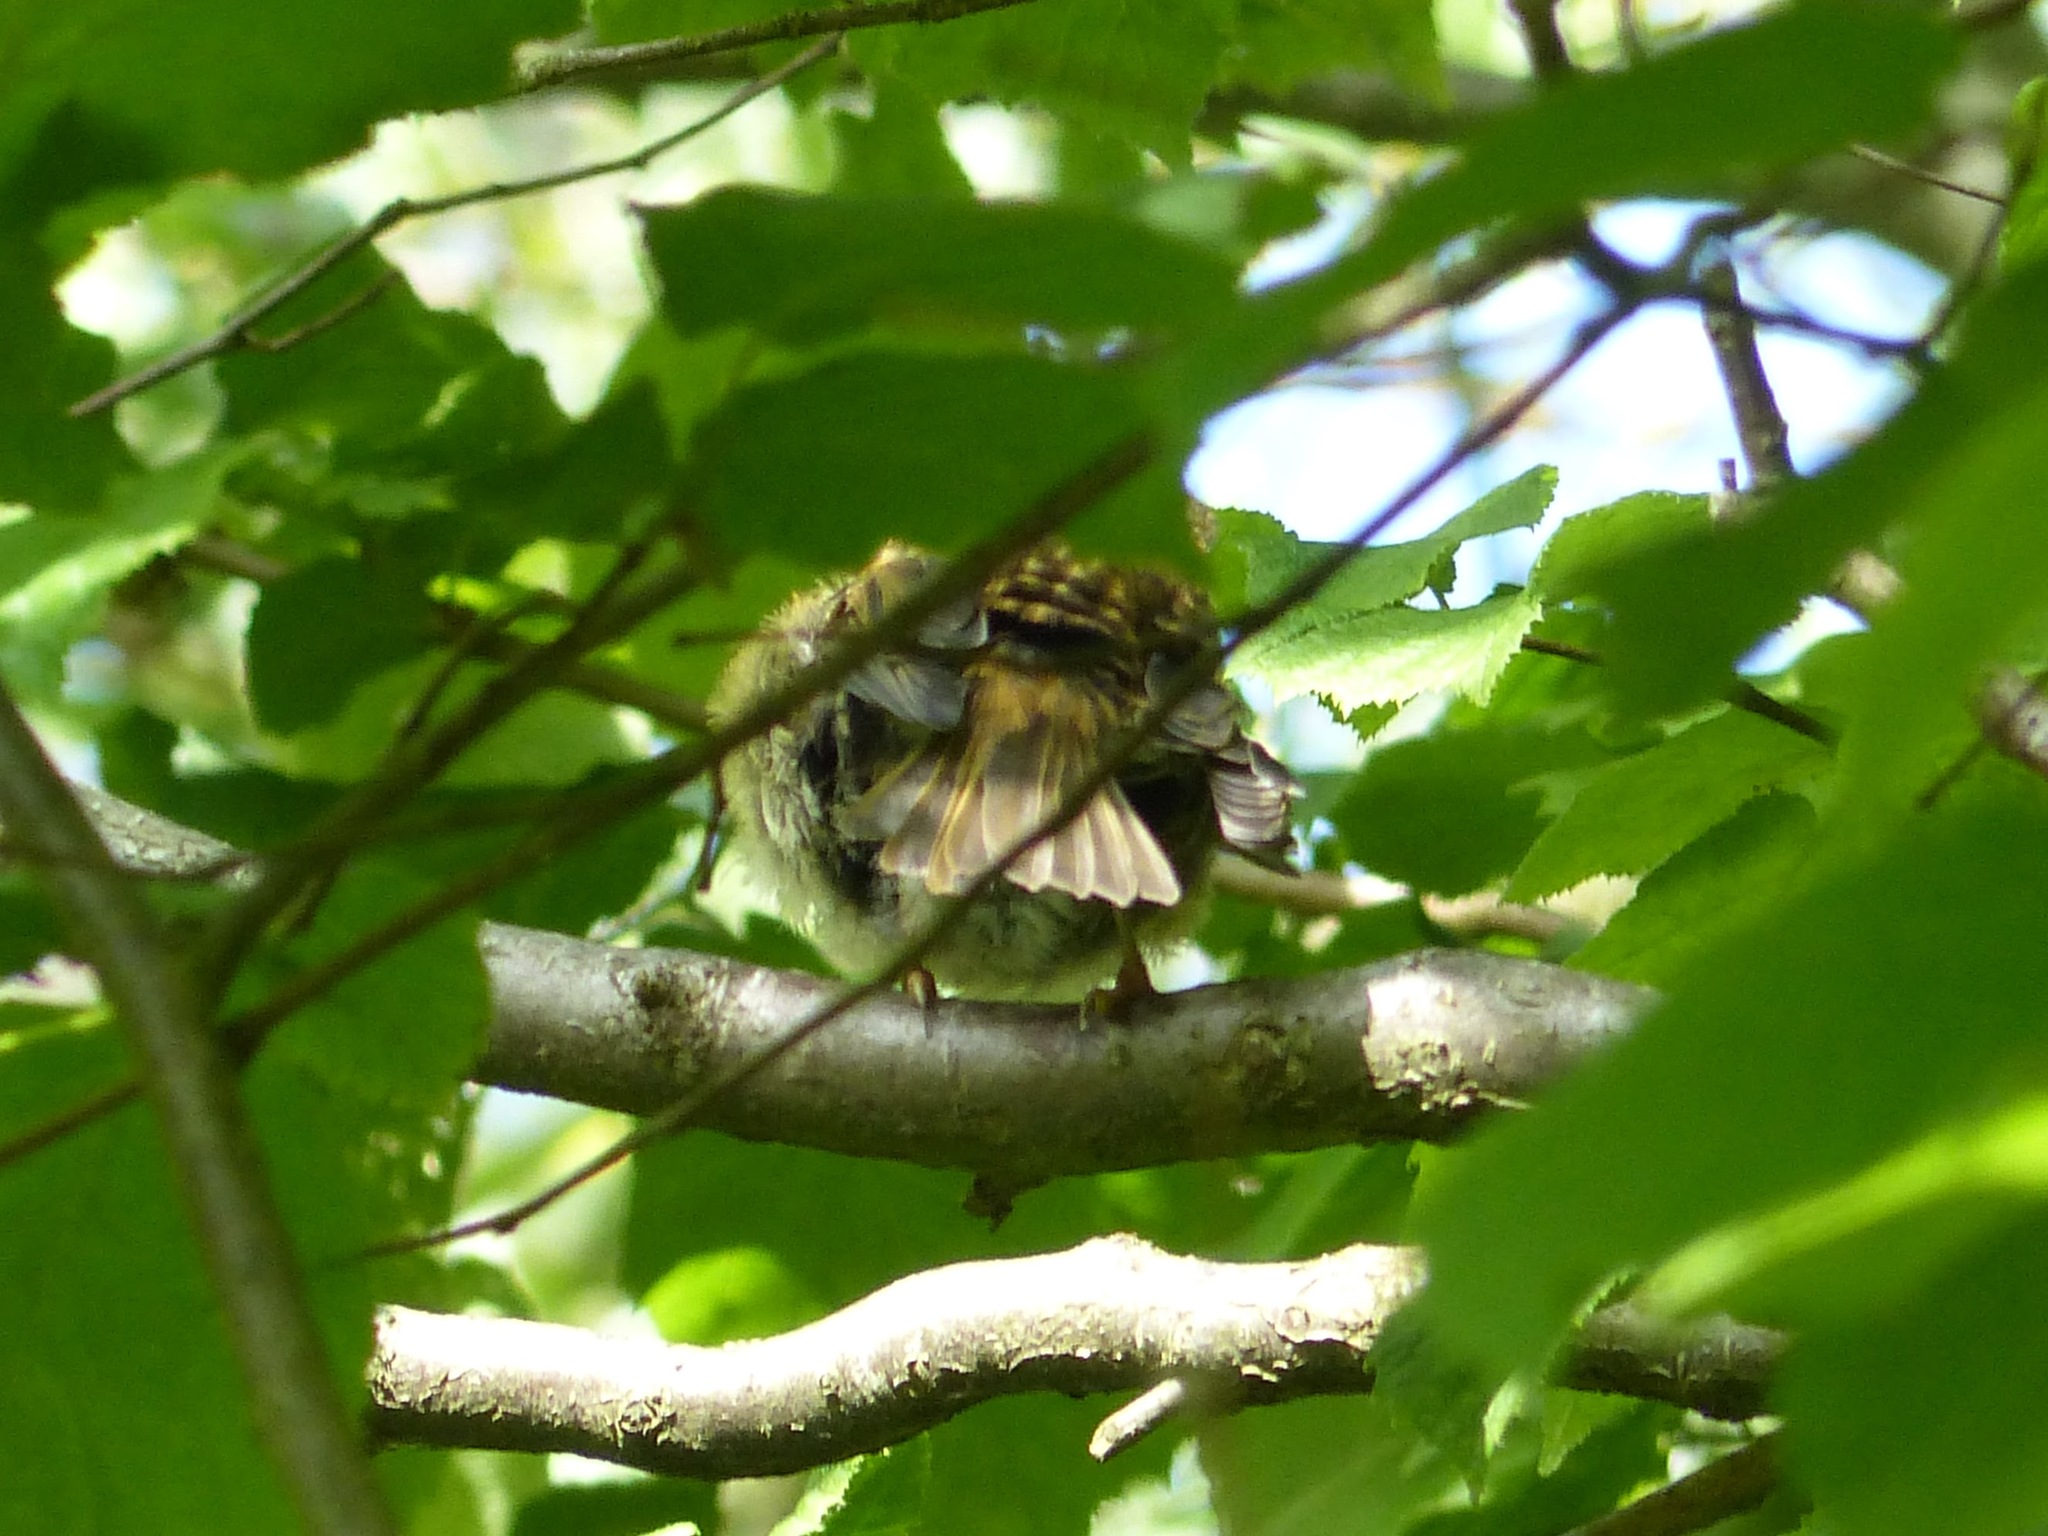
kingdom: Animalia
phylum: Chordata
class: Aves
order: Passeriformes
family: Muscicapidae
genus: Erithacus
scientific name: Erithacus rubecula
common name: European robin
